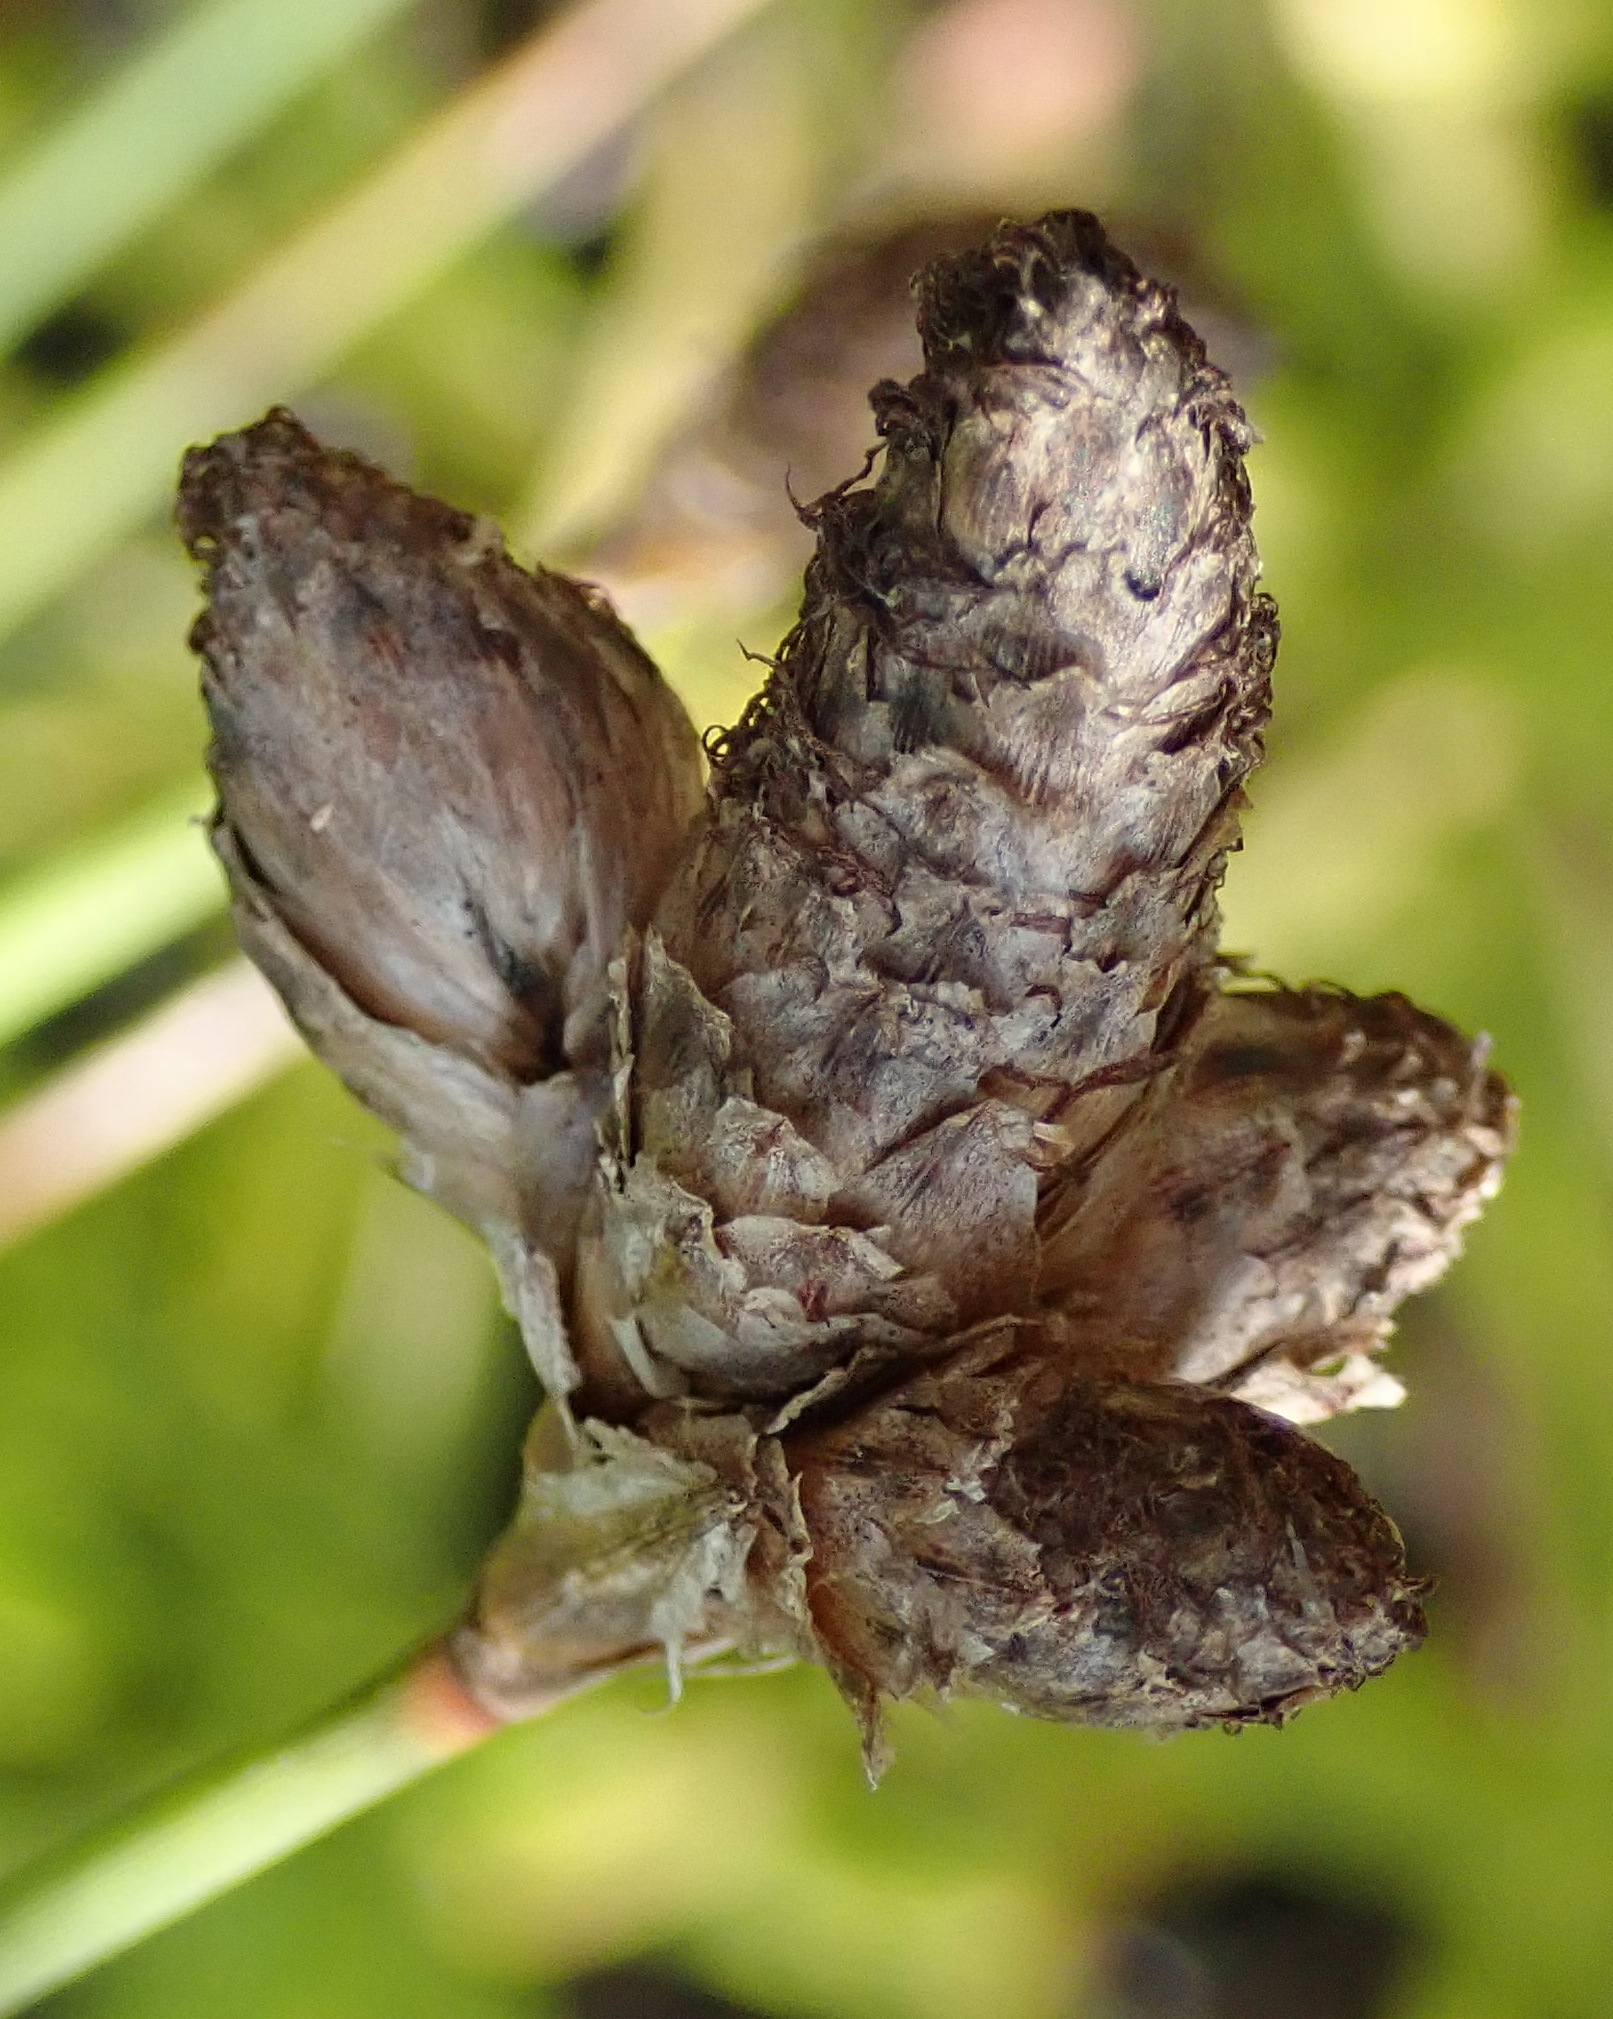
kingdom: Plantae
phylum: Tracheophyta
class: Liliopsida
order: Poales
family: Cyperaceae
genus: Hellmuthia
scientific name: Hellmuthia membranacea
